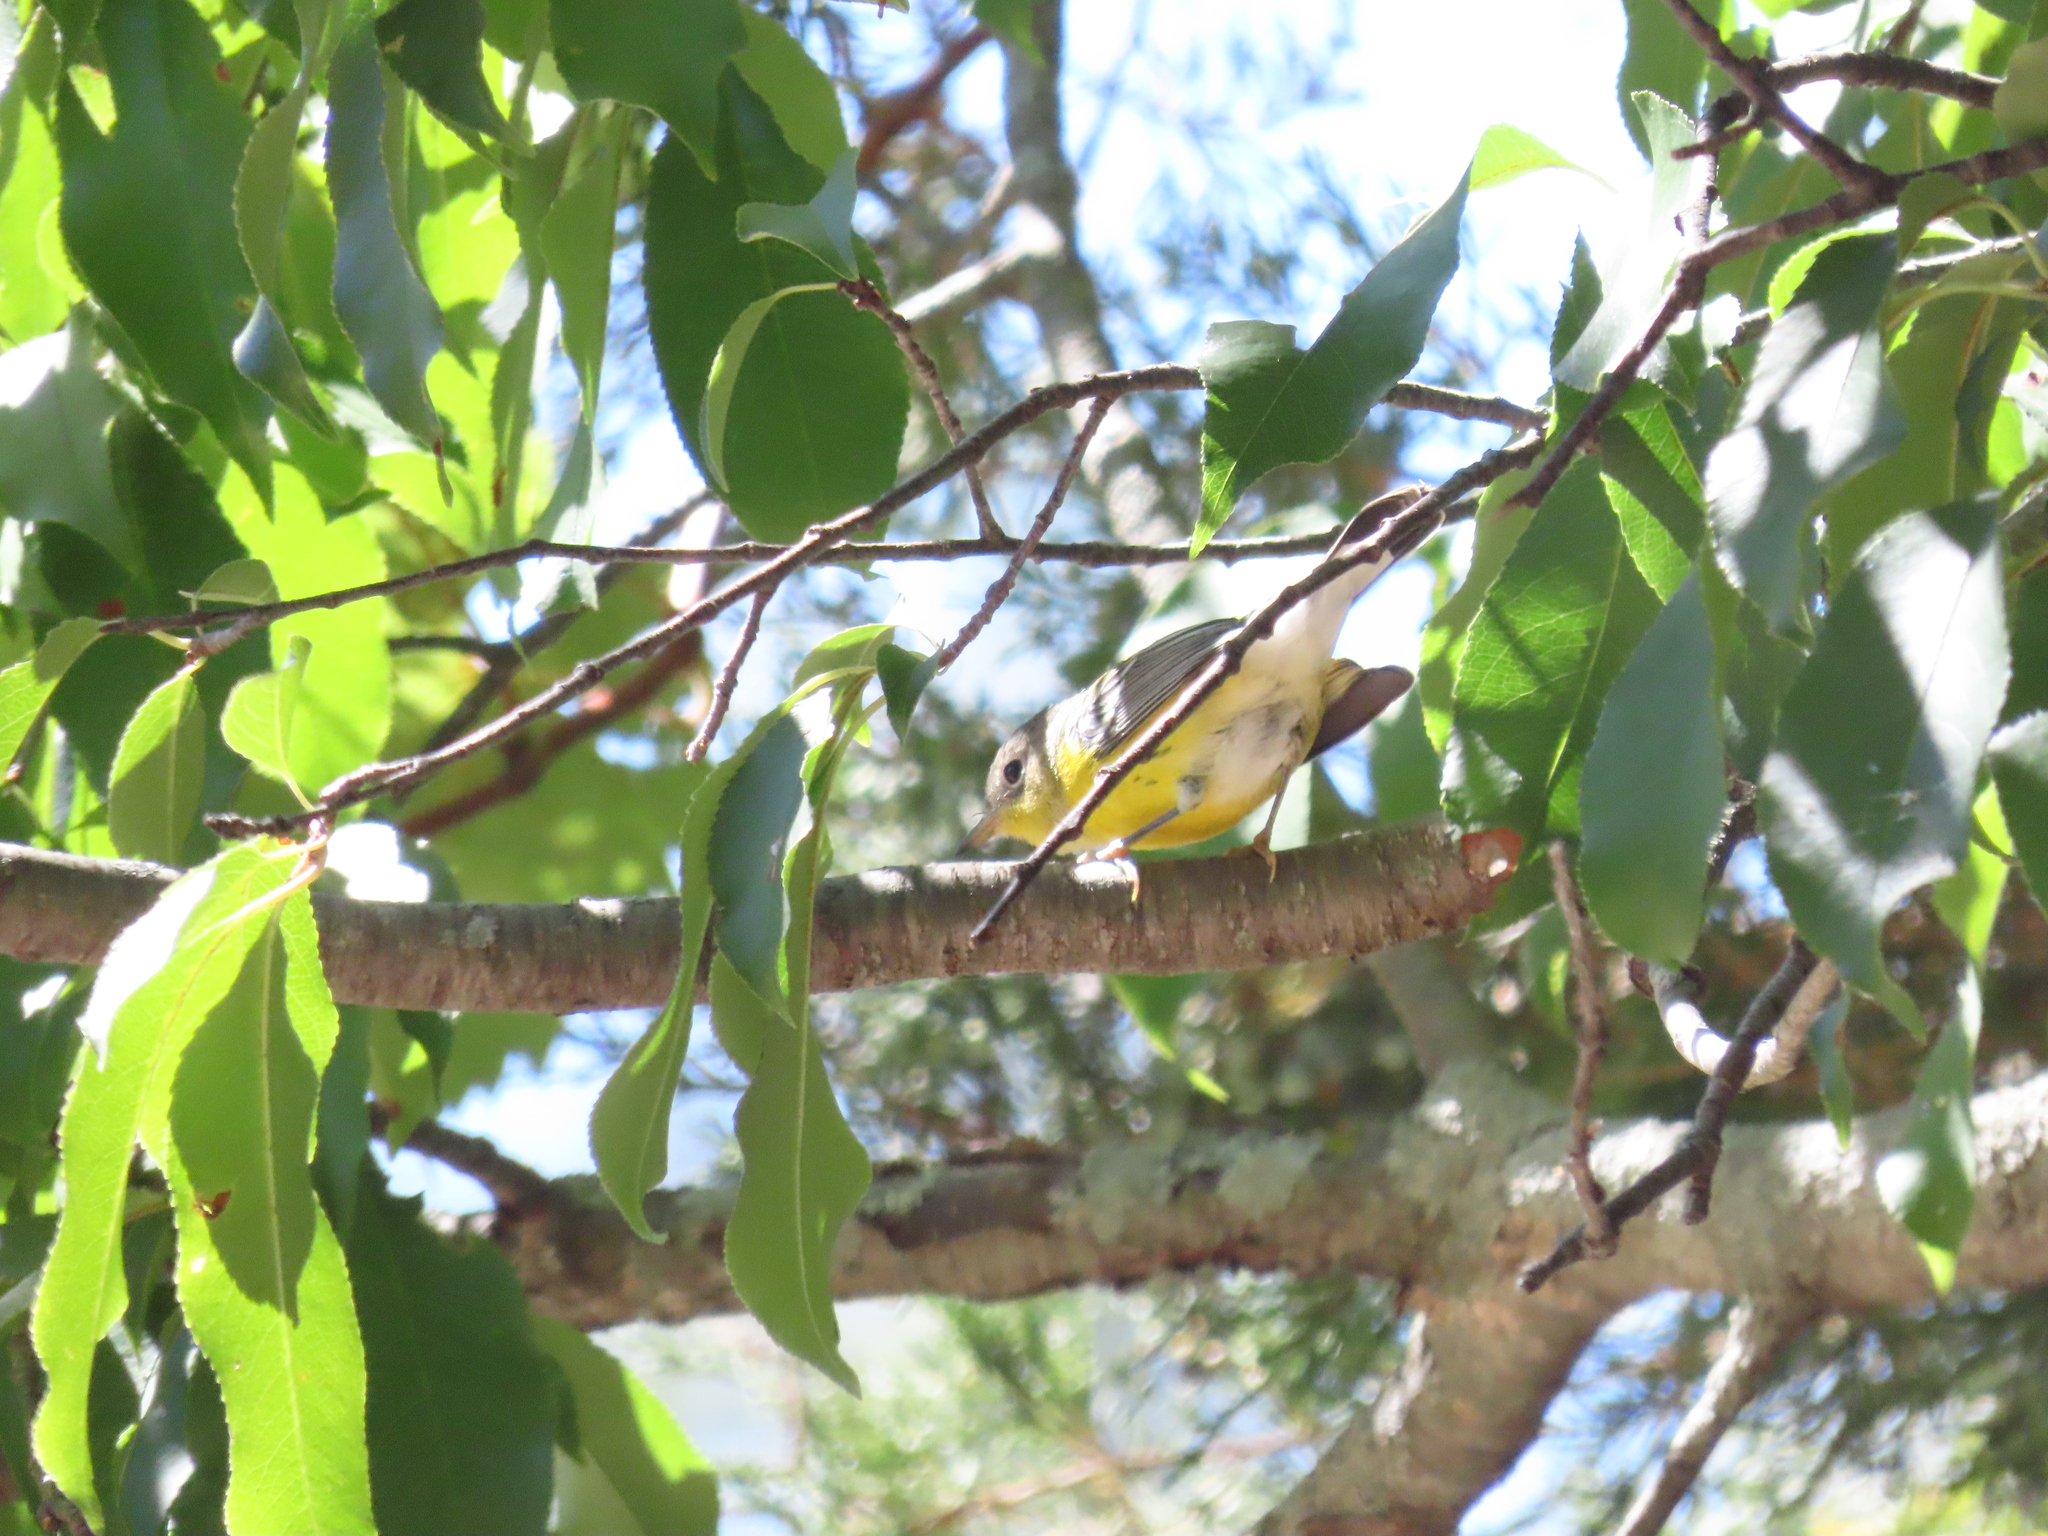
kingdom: Animalia
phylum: Chordata
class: Aves
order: Passeriformes
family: Parulidae
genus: Setophaga
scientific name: Setophaga magnolia
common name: Magnolia warbler
